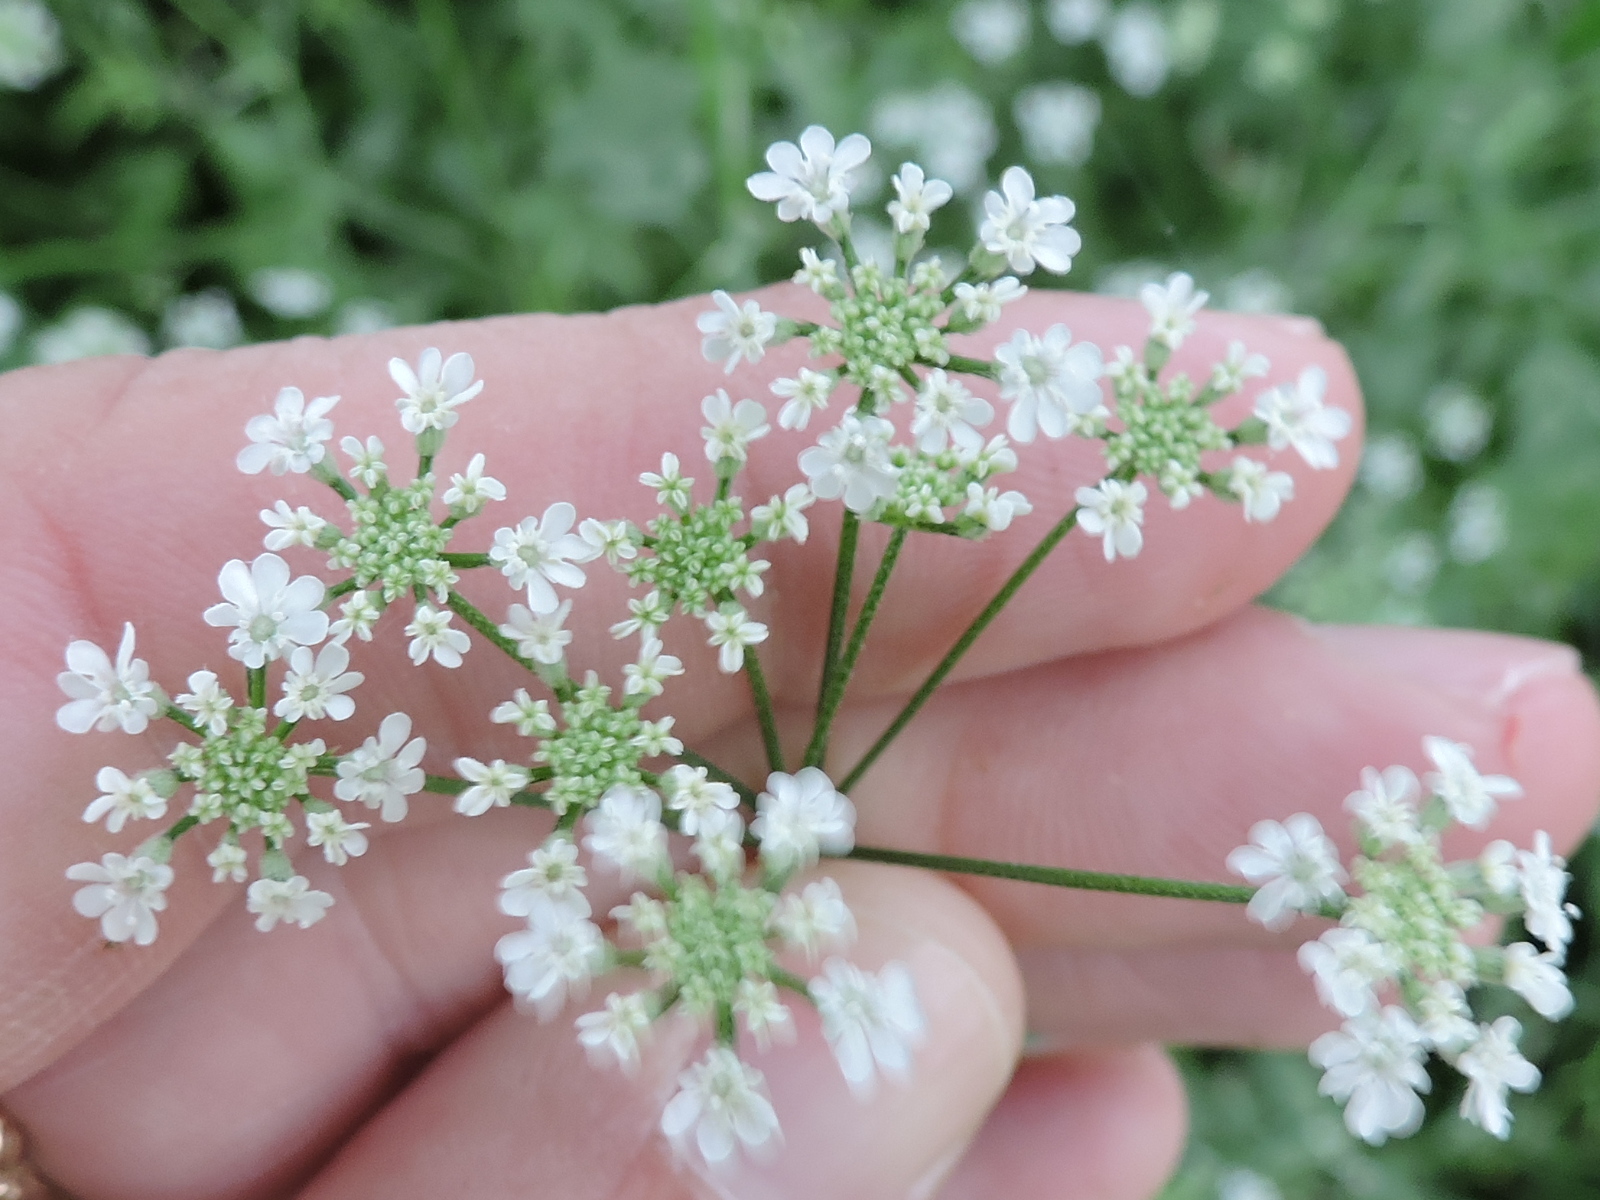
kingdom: Plantae
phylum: Tracheophyta
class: Magnoliopsida
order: Apiales
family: Apiaceae
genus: Torilis
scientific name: Torilis arvensis
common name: Spreading hedge-parsley
